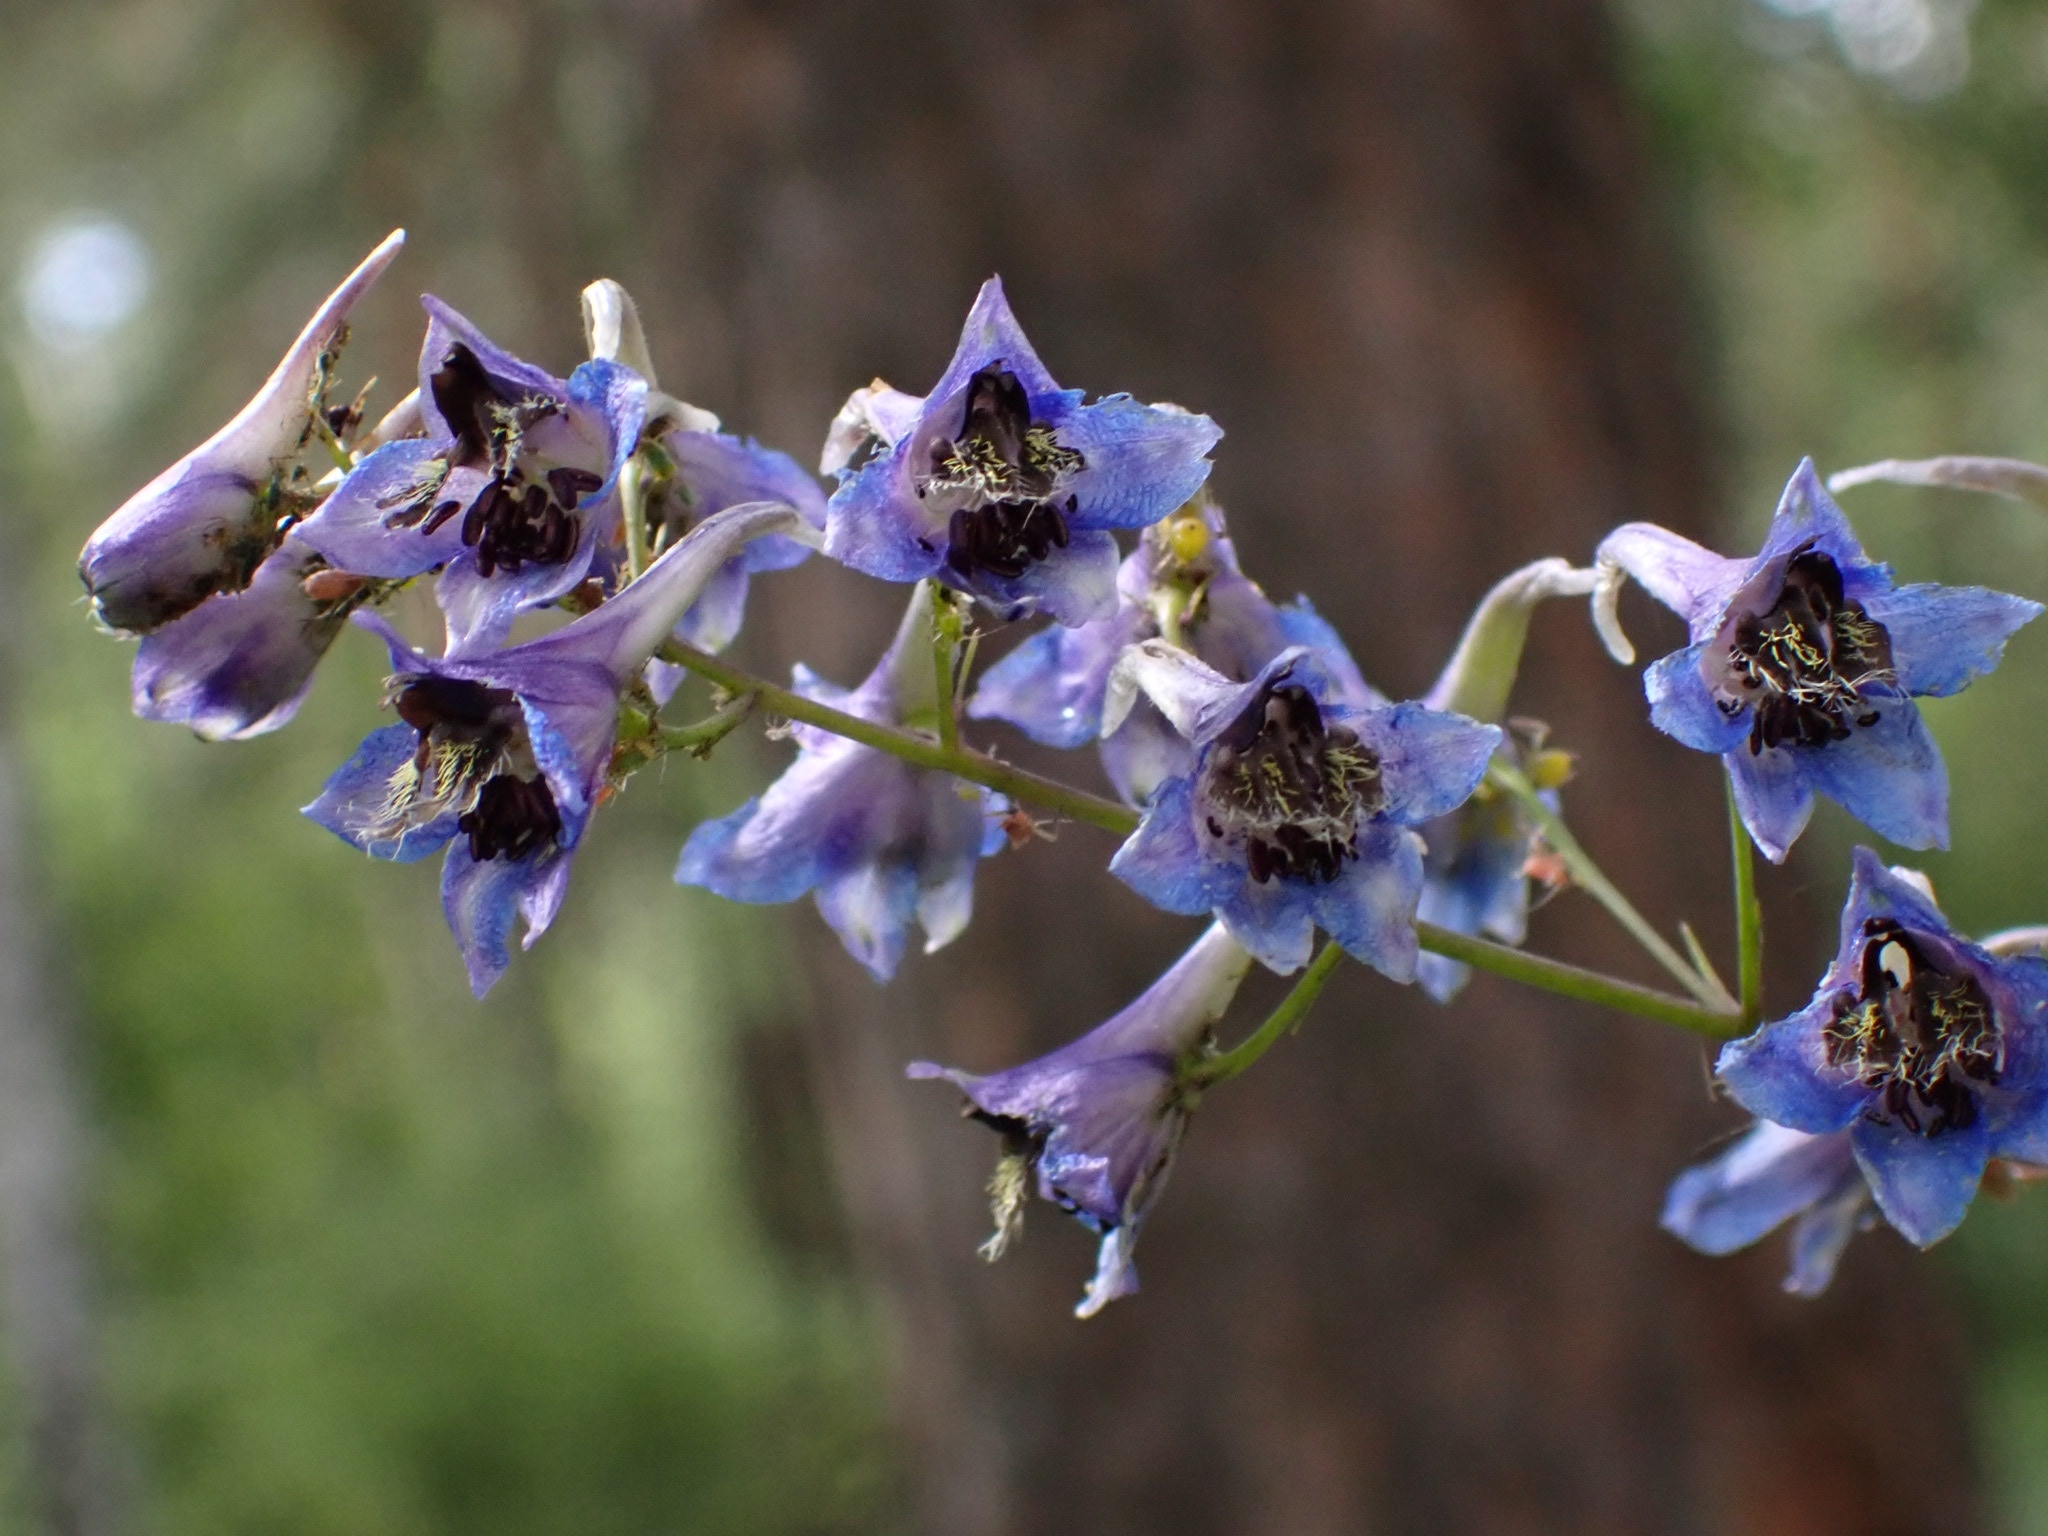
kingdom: Plantae
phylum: Tracheophyta
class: Magnoliopsida
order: Ranunculales
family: Ranunculaceae
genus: Delphinium
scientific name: Delphinium elatum
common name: Candle larkspur
